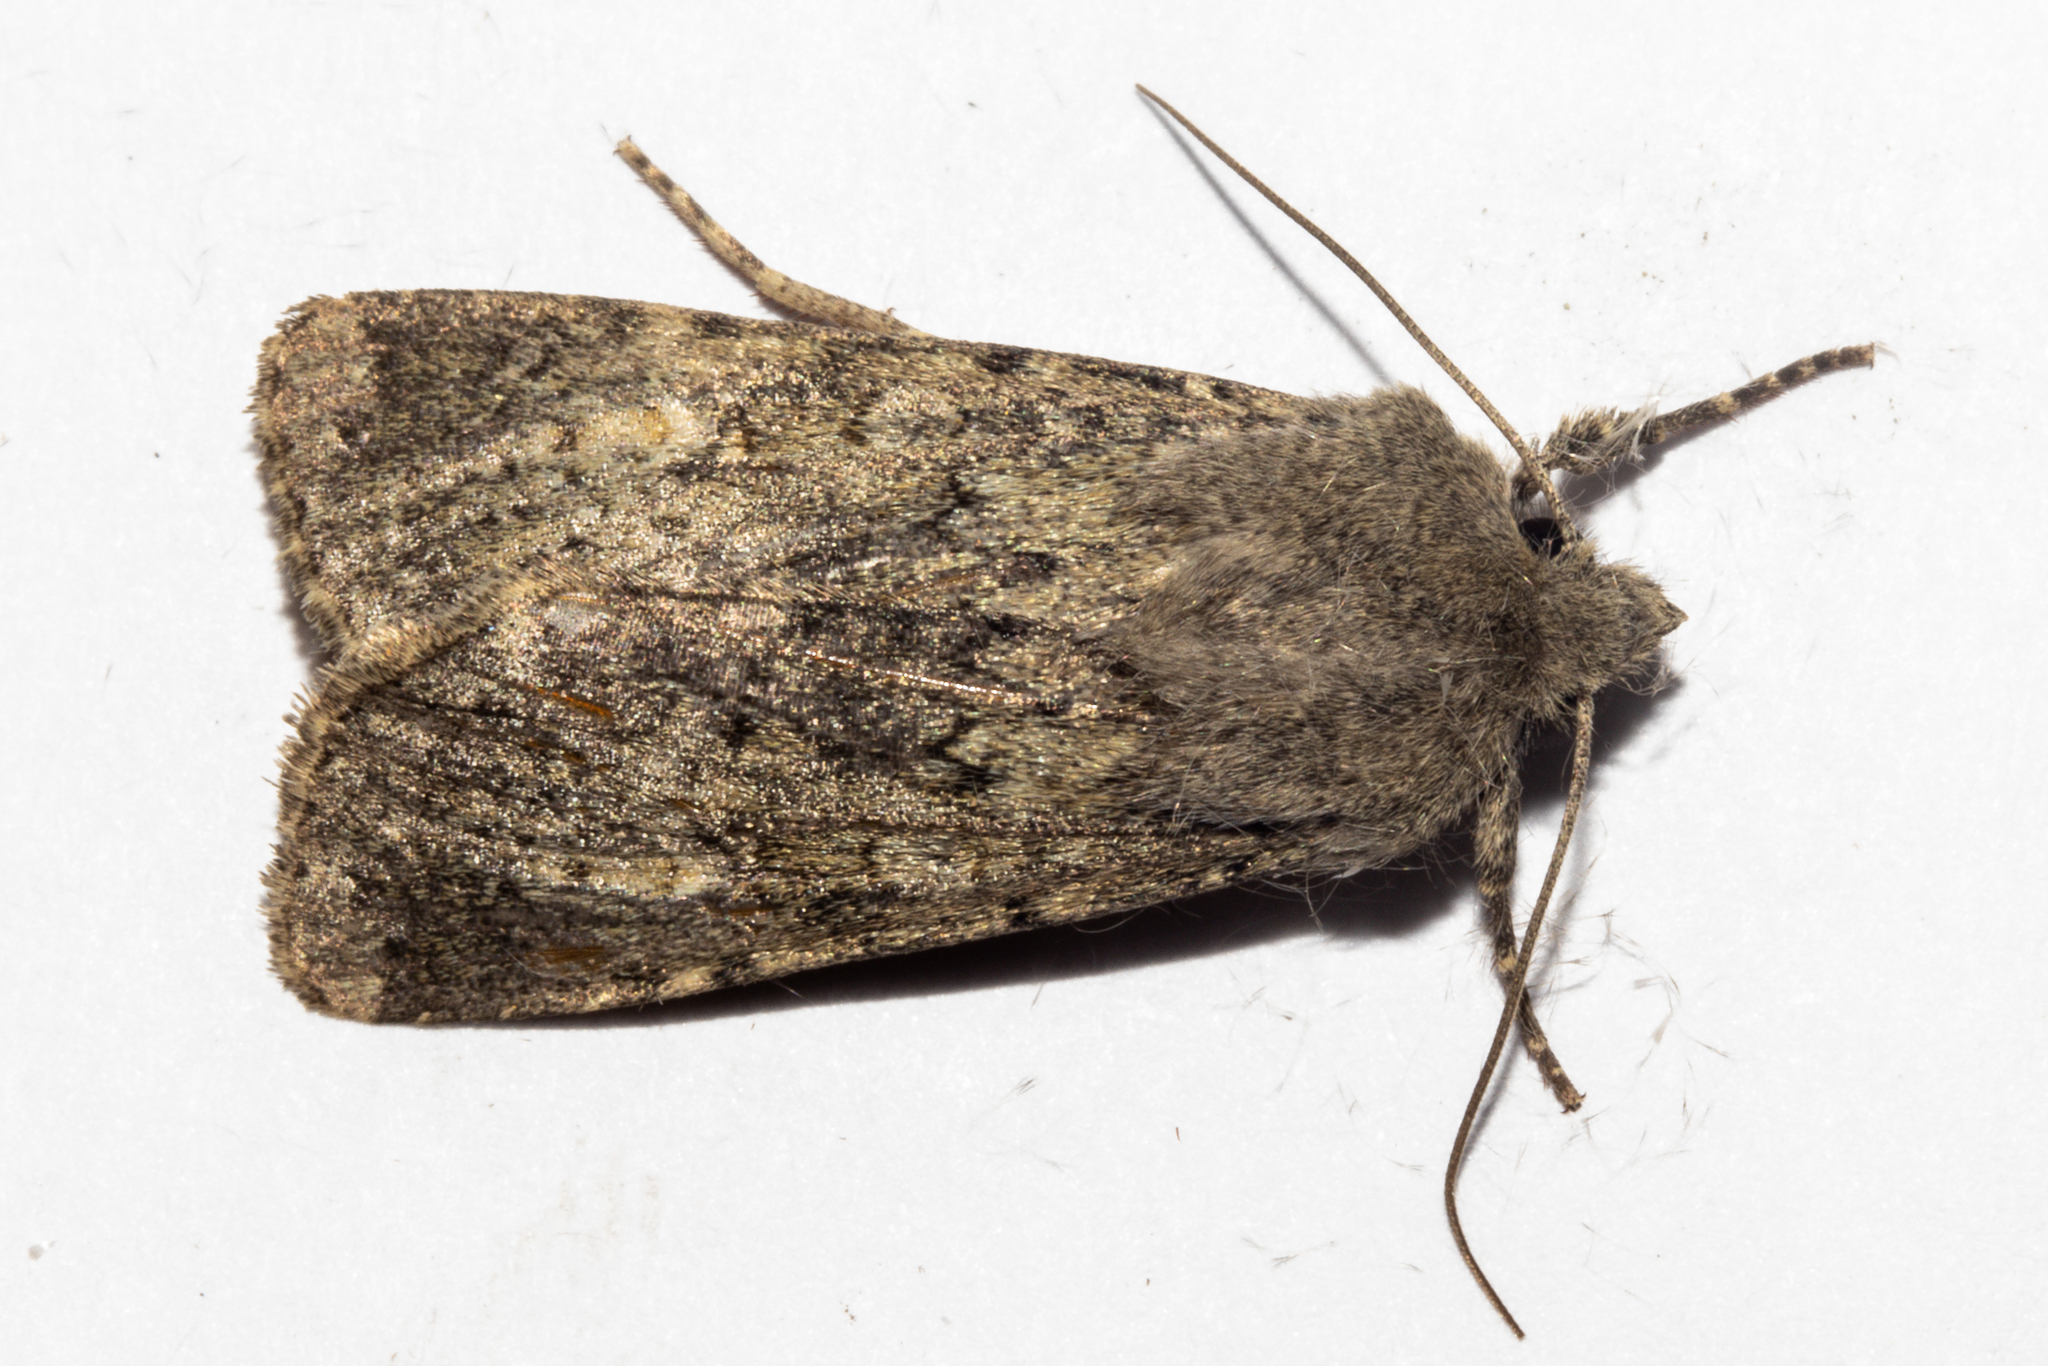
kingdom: Animalia
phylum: Arthropoda
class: Insecta
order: Lepidoptera
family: Noctuidae
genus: Ichneutica
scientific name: Ichneutica moderata
